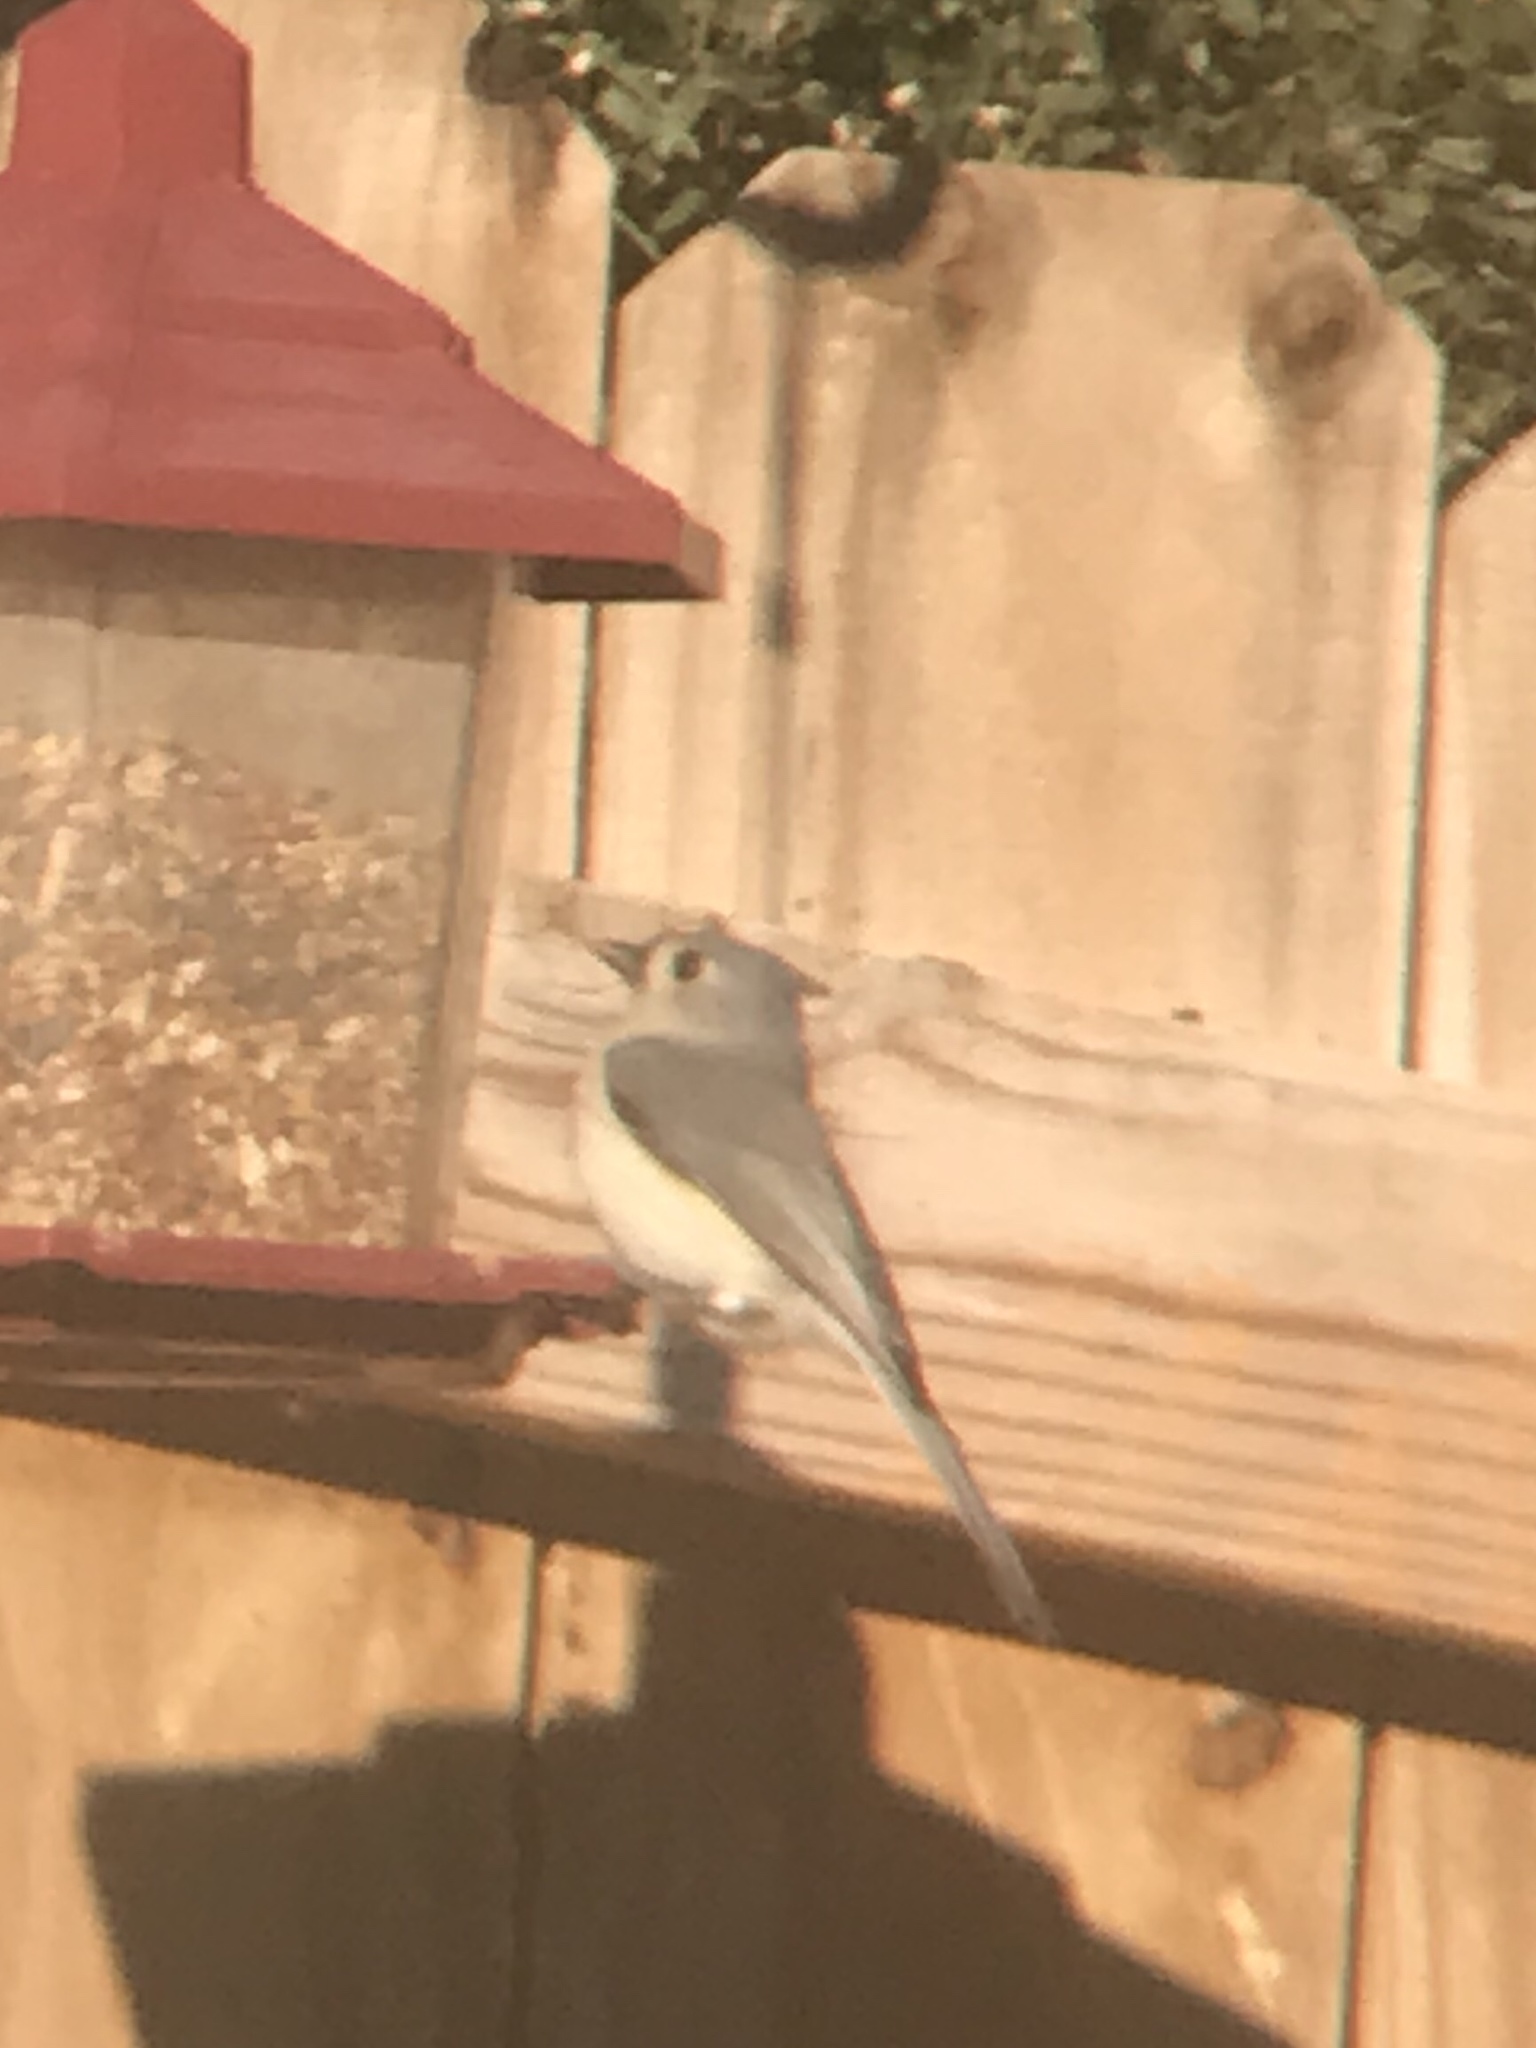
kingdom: Animalia
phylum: Chordata
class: Aves
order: Passeriformes
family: Paridae
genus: Baeolophus
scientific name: Baeolophus bicolor
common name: Tufted titmouse
